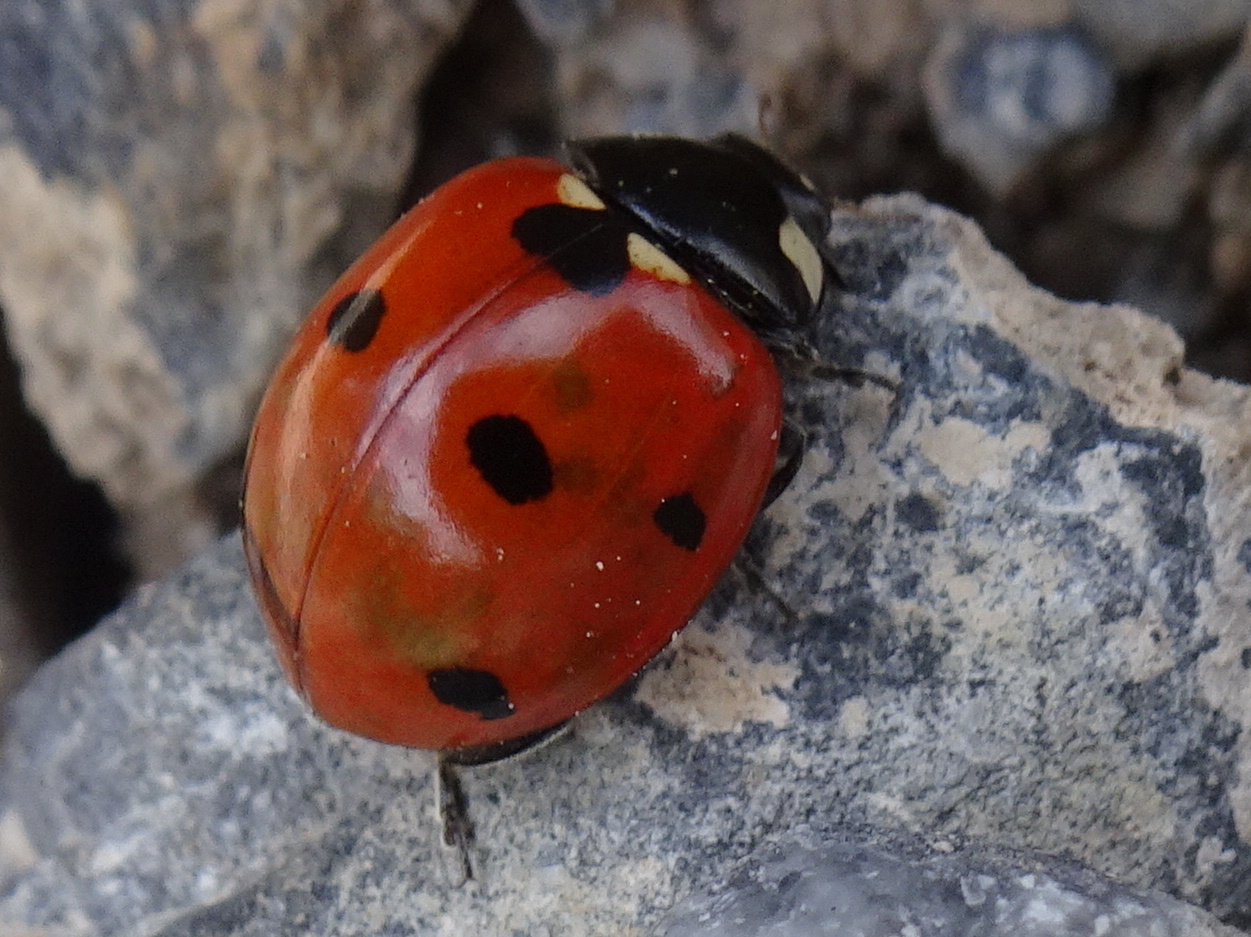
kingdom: Animalia
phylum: Arthropoda
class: Insecta
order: Coleoptera
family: Coccinellidae
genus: Coccinella
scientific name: Coccinella septempunctata
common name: Sevenspotted lady beetle
